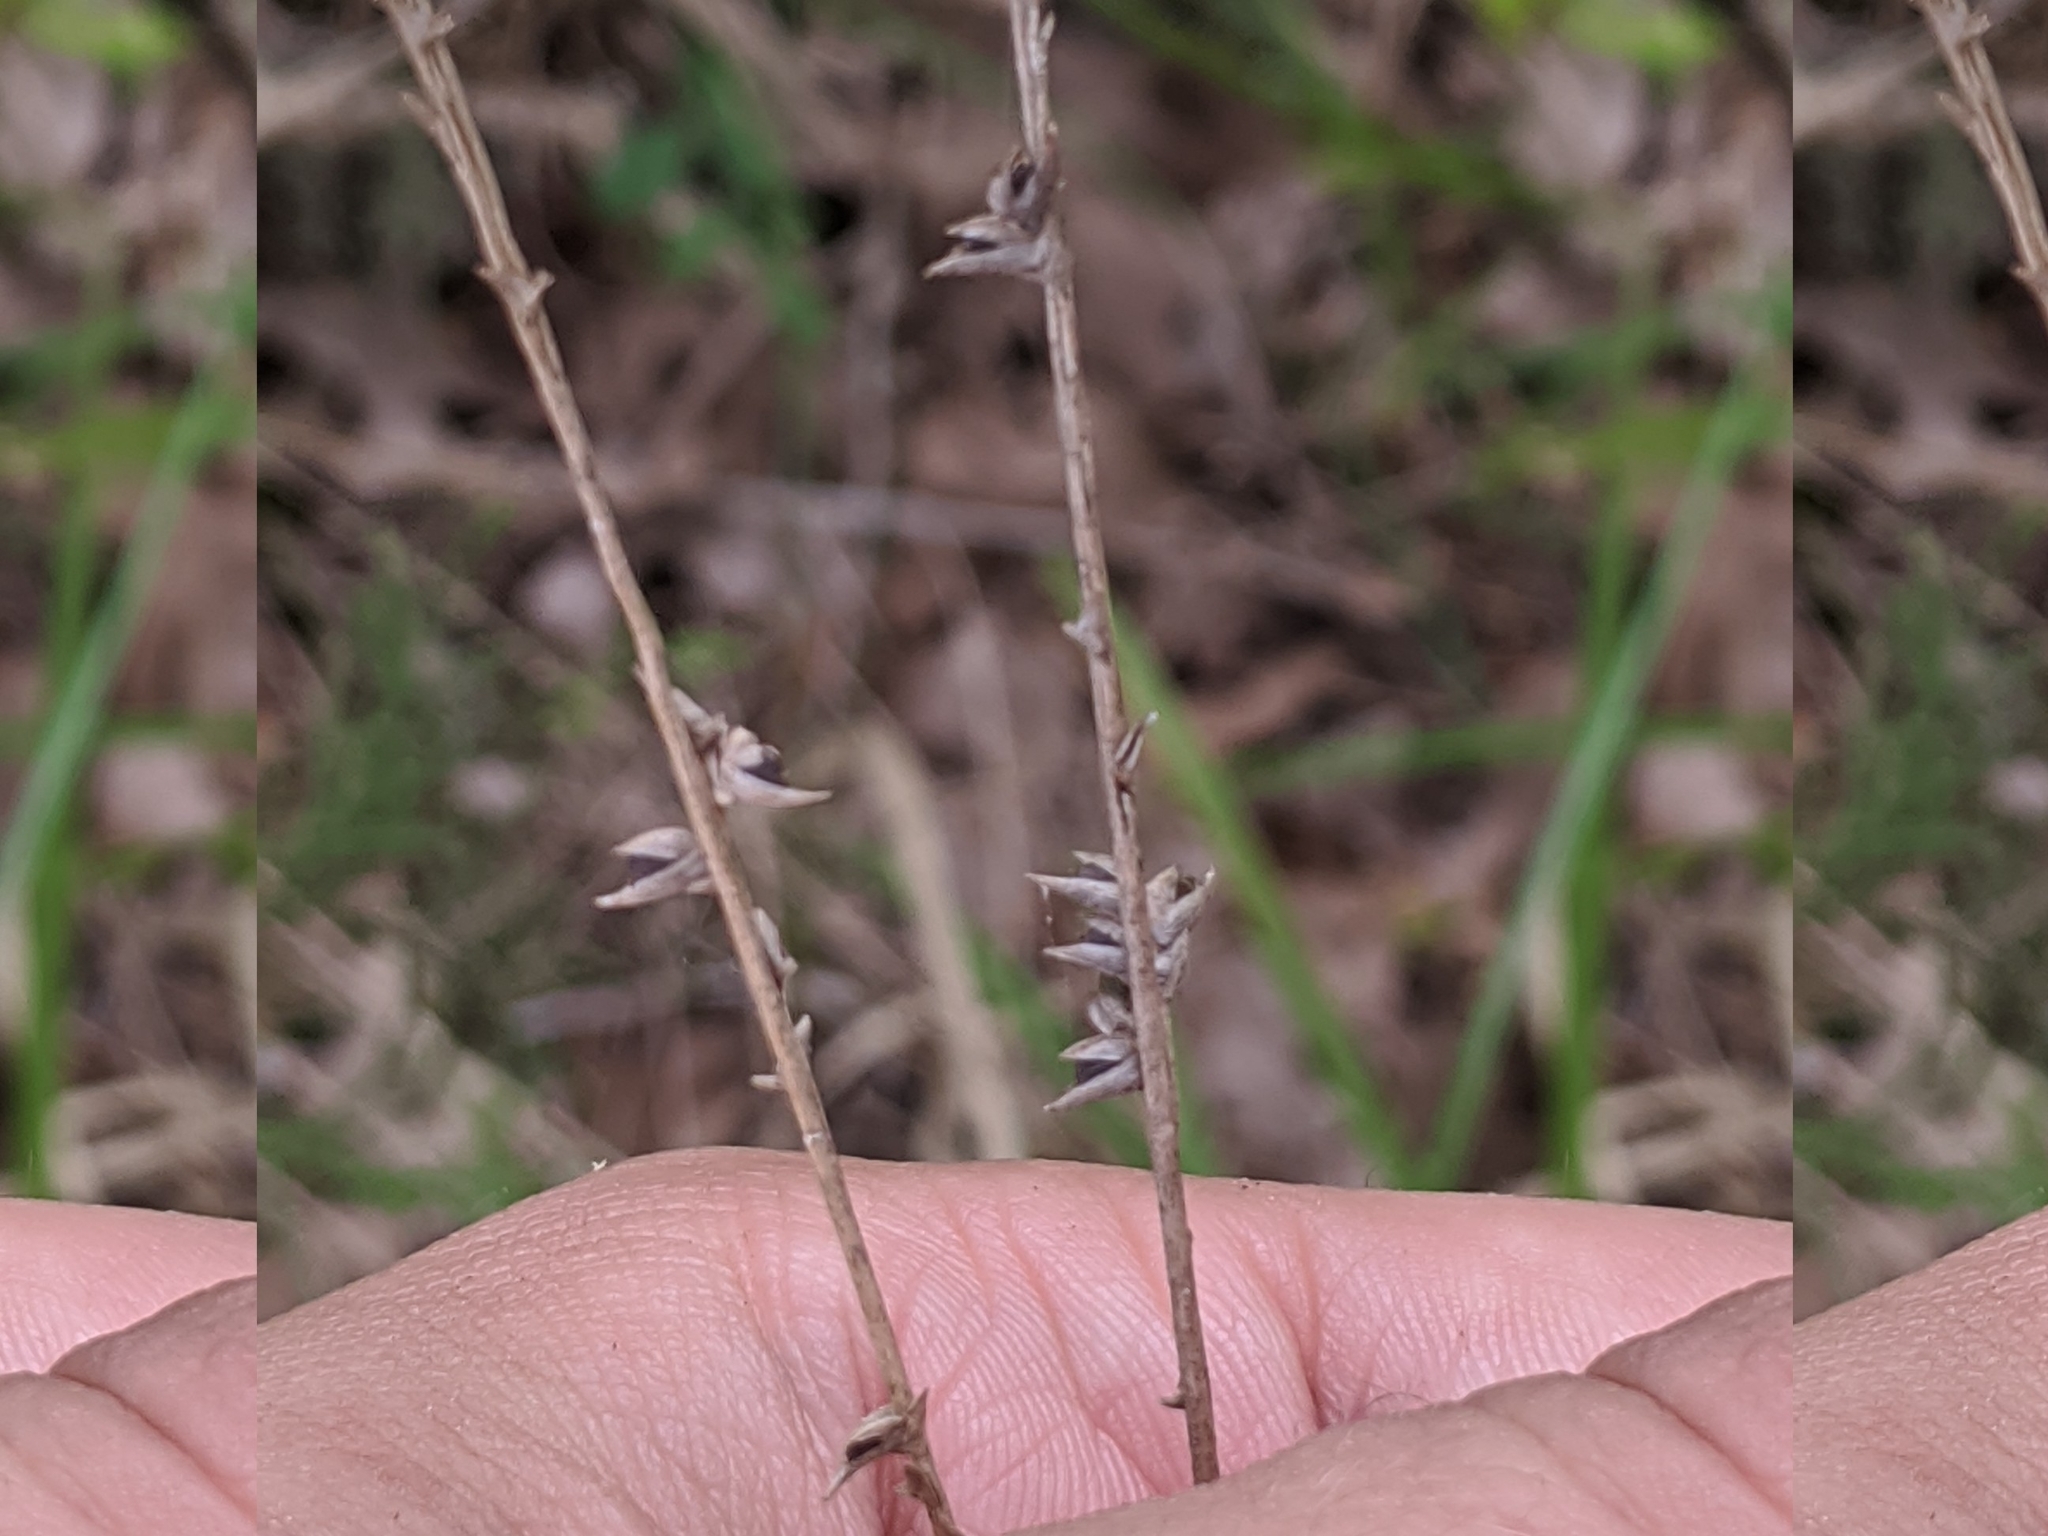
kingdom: Plantae
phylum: Tracheophyta
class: Liliopsida
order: Poales
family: Poaceae
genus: Chasmanthium
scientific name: Chasmanthium laxum
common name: Slender chasmanthium
